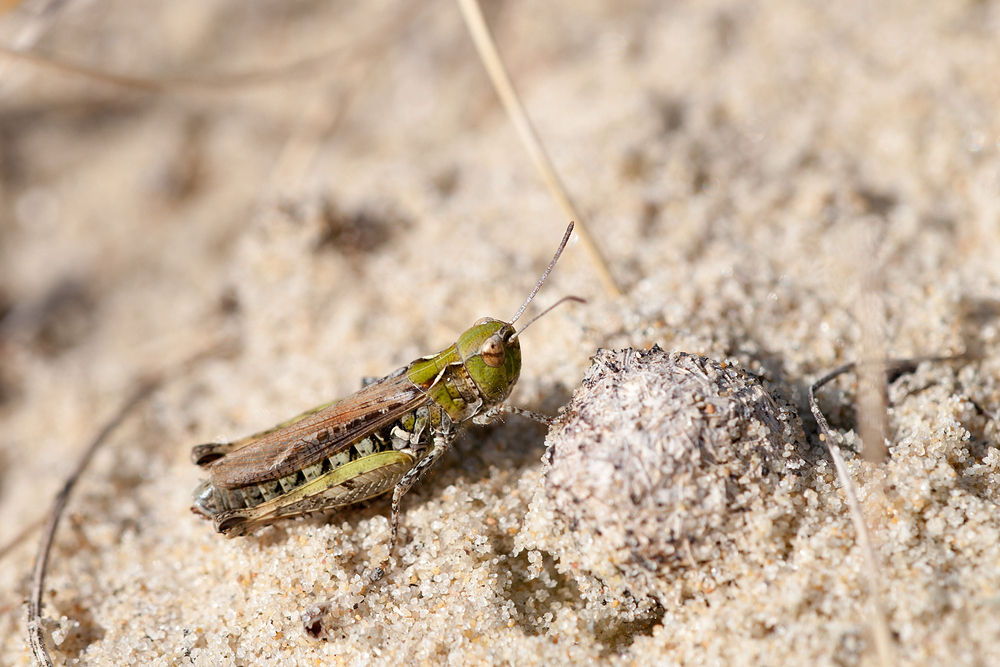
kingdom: Animalia
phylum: Arthropoda
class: Insecta
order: Orthoptera
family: Acrididae
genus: Myrmeleotettix
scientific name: Myrmeleotettix maculatus
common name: Mottled grasshopper
